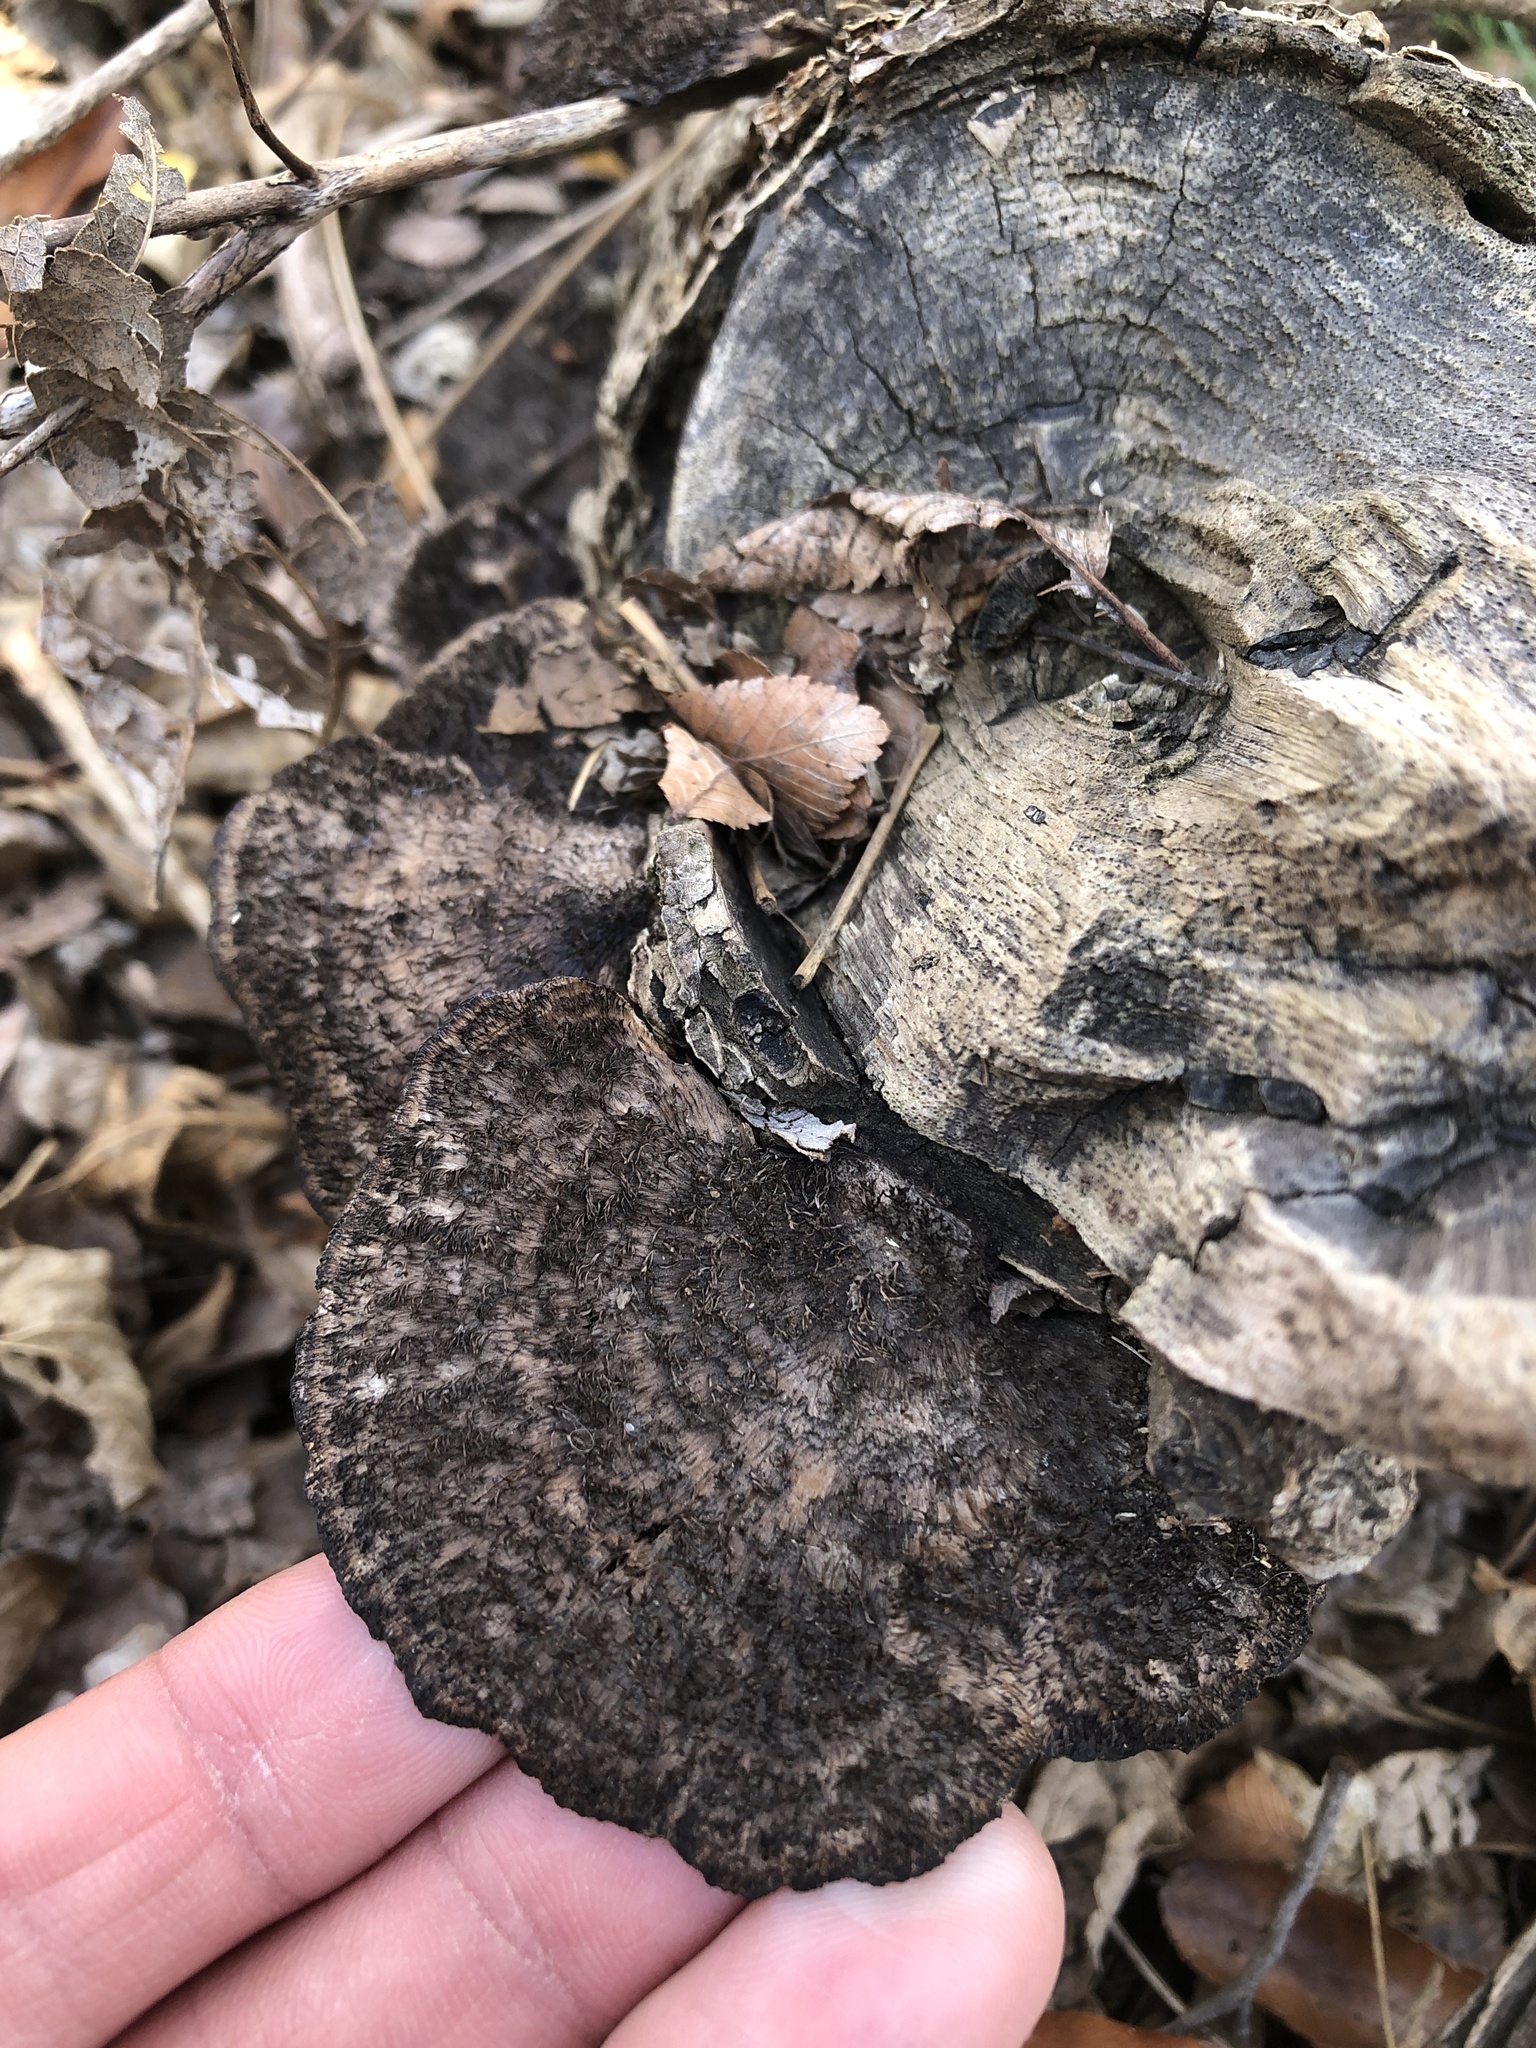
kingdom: Fungi
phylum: Basidiomycota
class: Agaricomycetes
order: Polyporales
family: Cerrenaceae
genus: Cerrena
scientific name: Cerrena hydnoides
